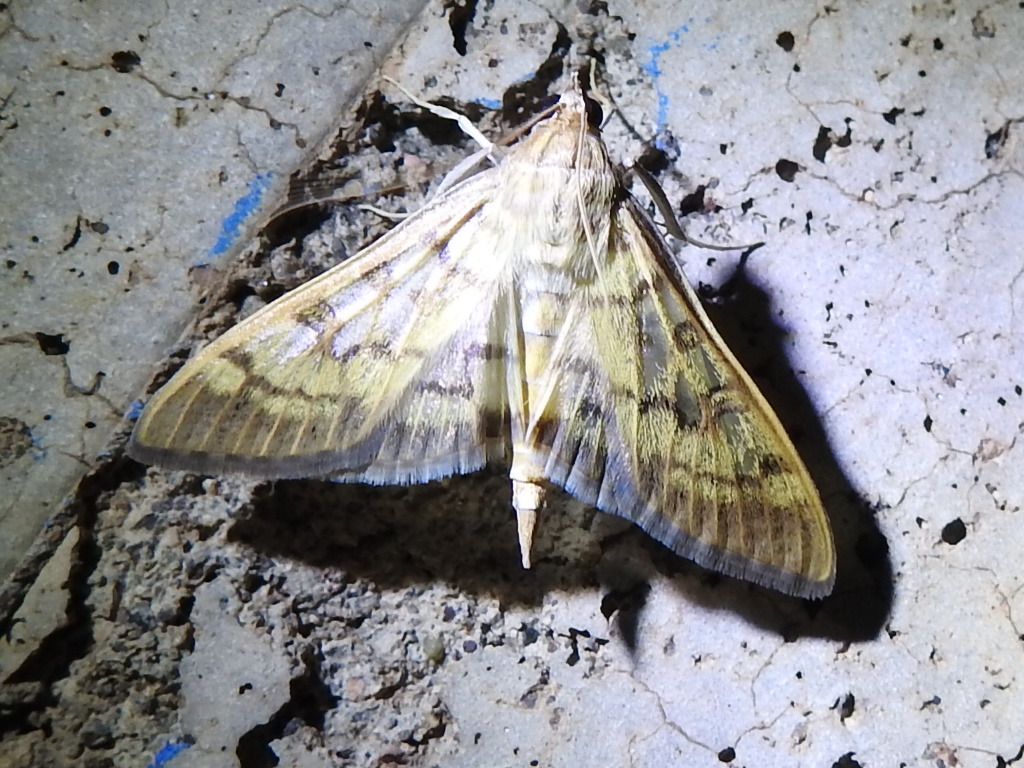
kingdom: Animalia
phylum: Arthropoda
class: Insecta
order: Lepidoptera
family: Crambidae
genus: Mimorista
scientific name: Mimorista subcostalis
